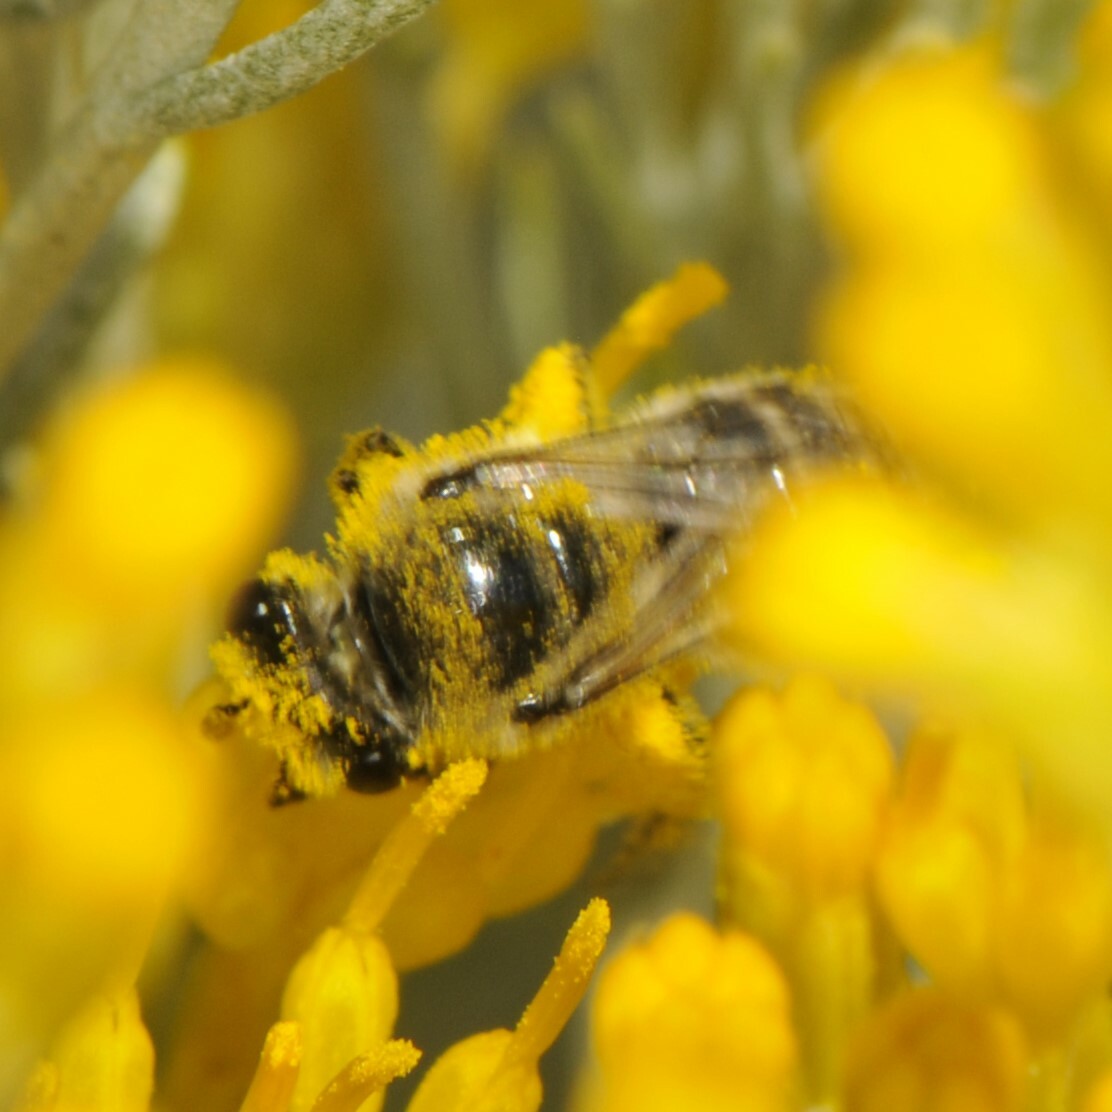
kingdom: Animalia
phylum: Arthropoda
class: Insecta
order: Hymenoptera
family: Colletidae
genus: Colletes
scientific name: Colletes
